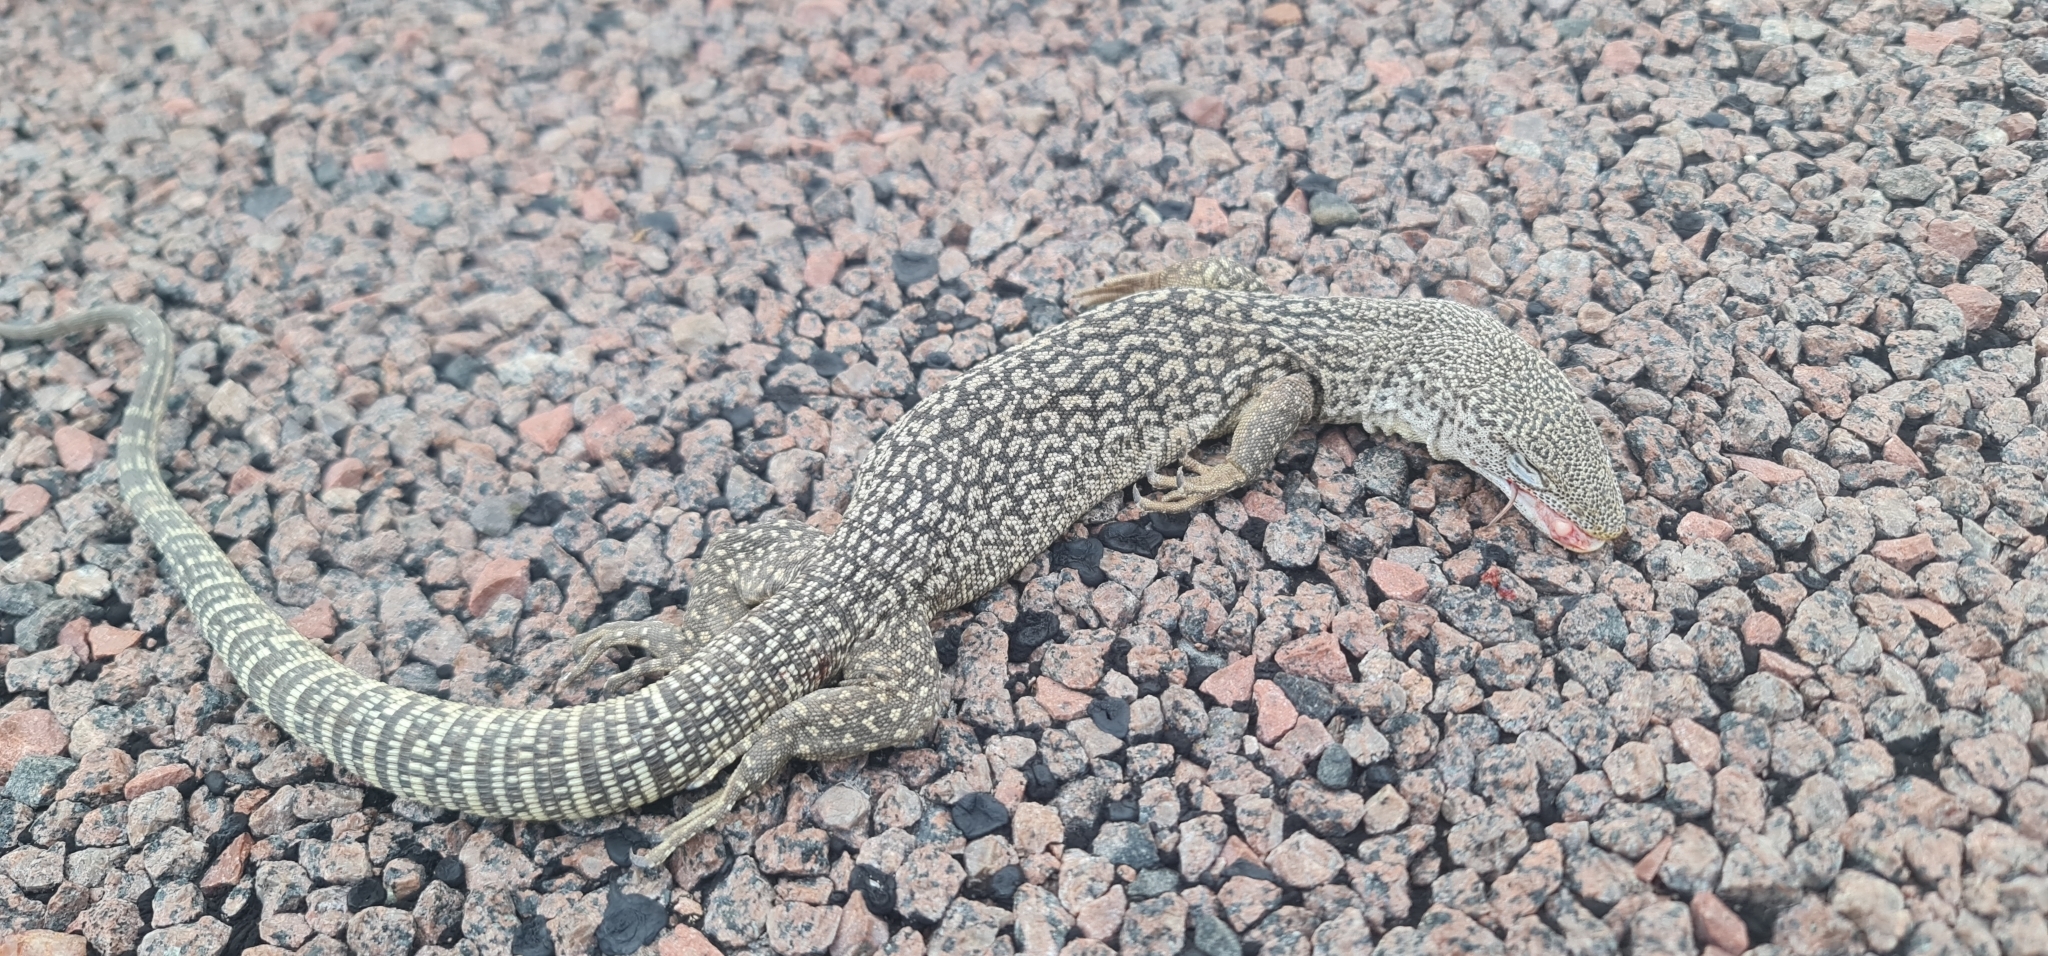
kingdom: Animalia
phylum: Chordata
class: Squamata
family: Varanidae
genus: Varanus
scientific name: Varanus scalaris
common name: Banded tree monitor
